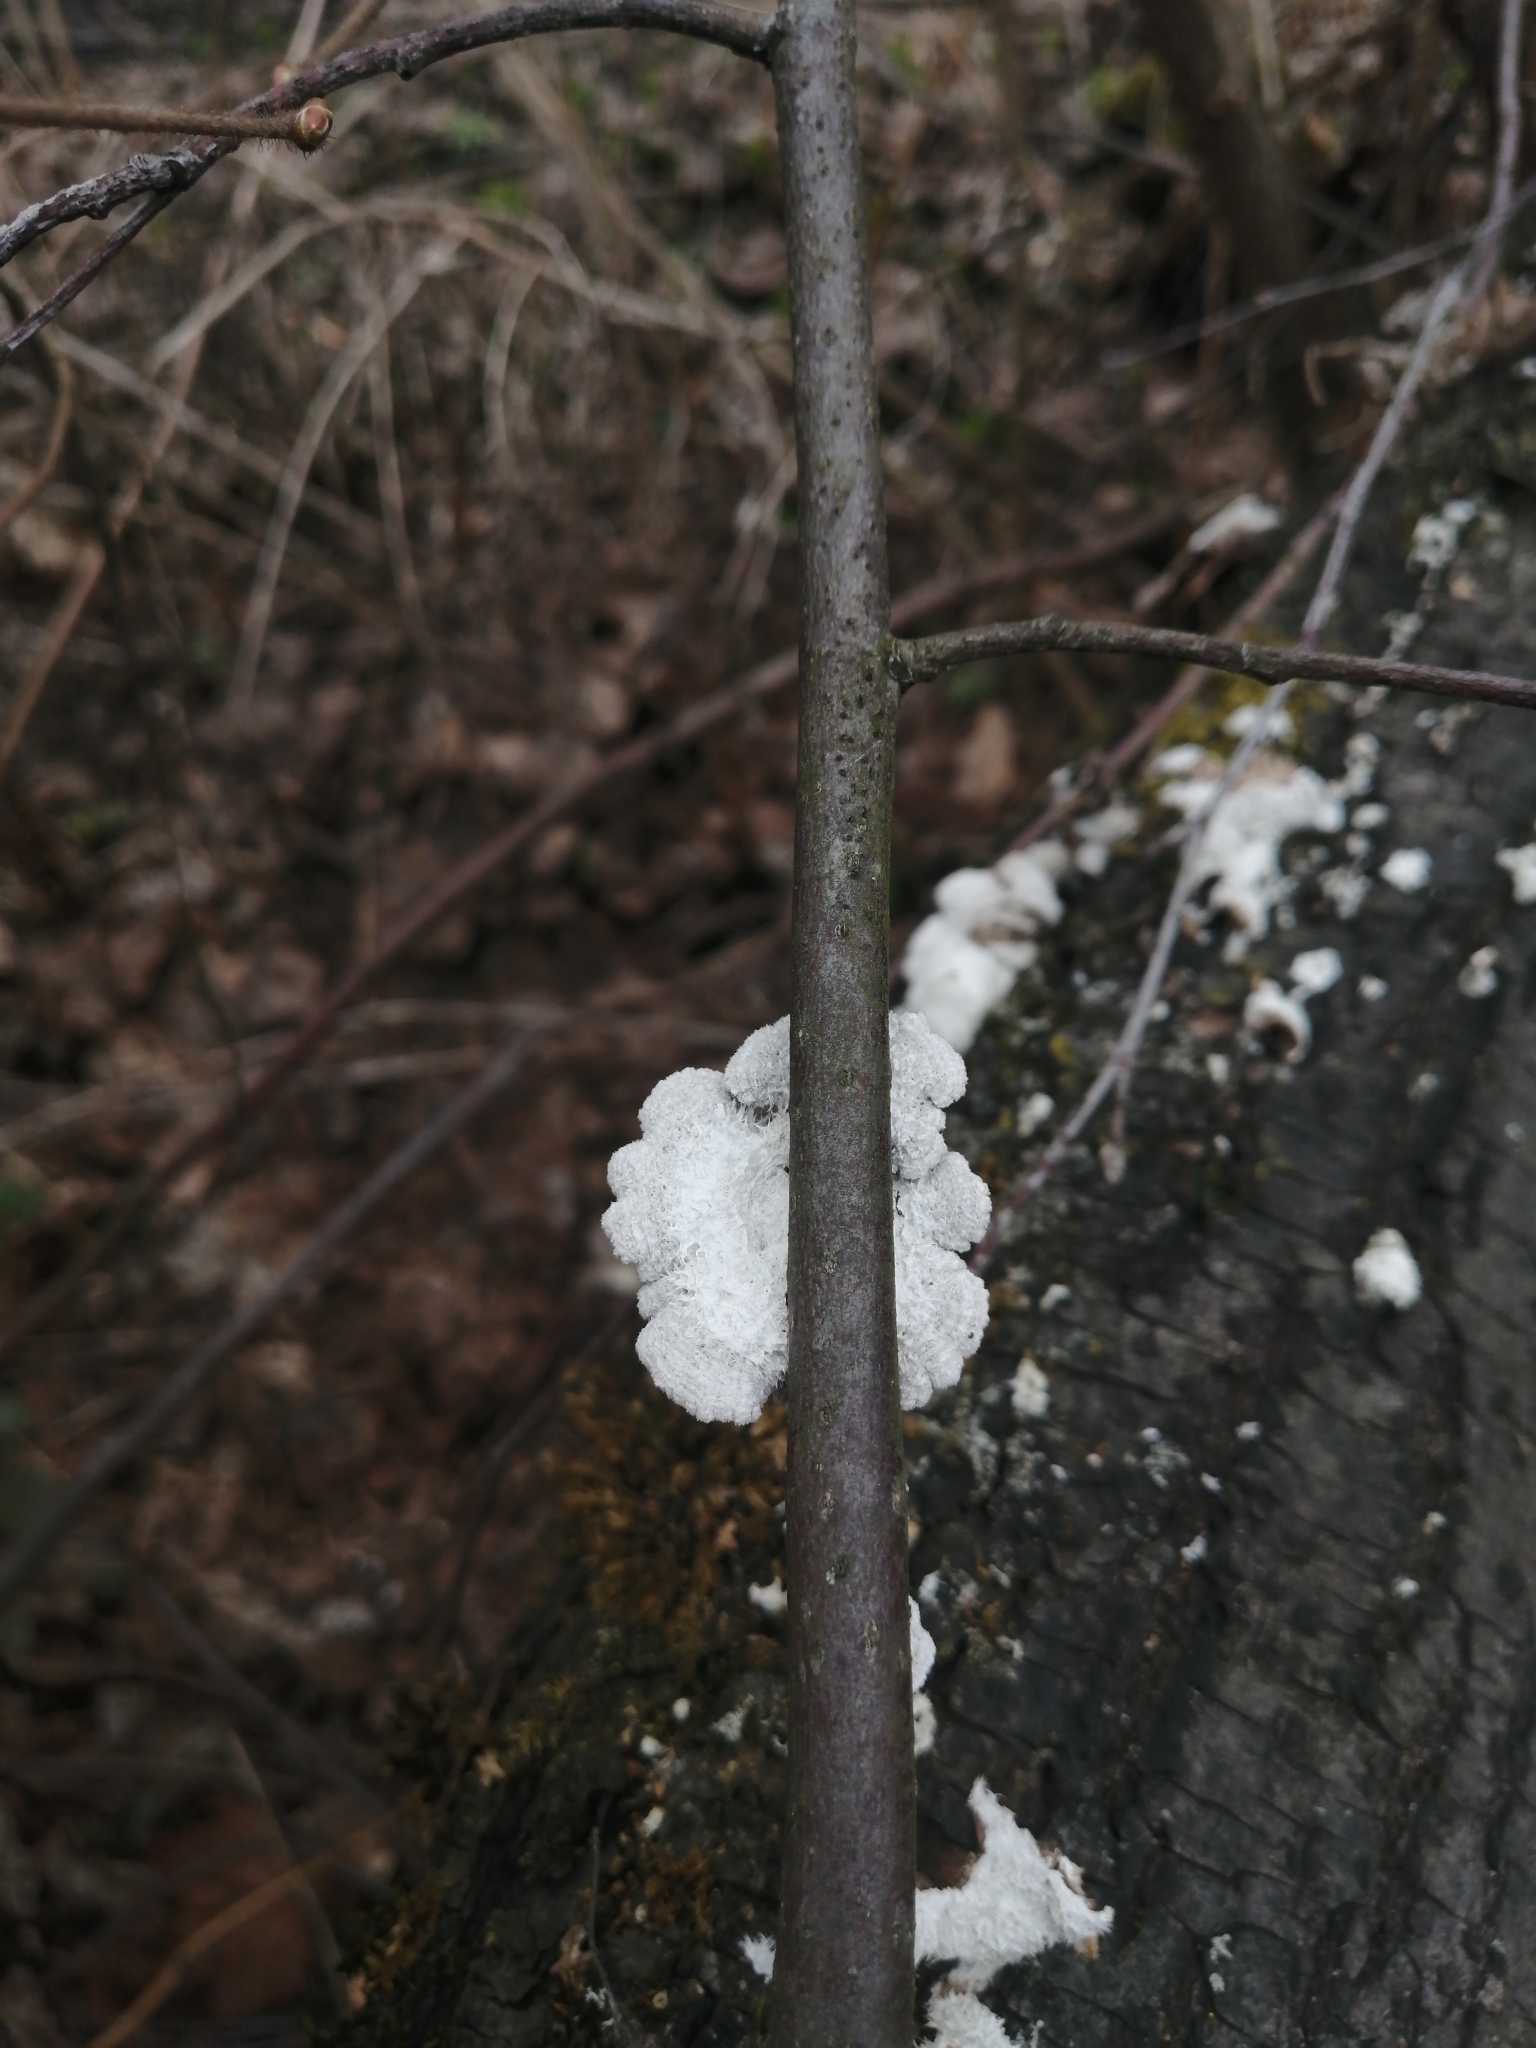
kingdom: Fungi
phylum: Basidiomycota
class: Agaricomycetes
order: Agaricales
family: Schizophyllaceae
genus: Schizophyllum
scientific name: Schizophyllum commune
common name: Common porecrust
